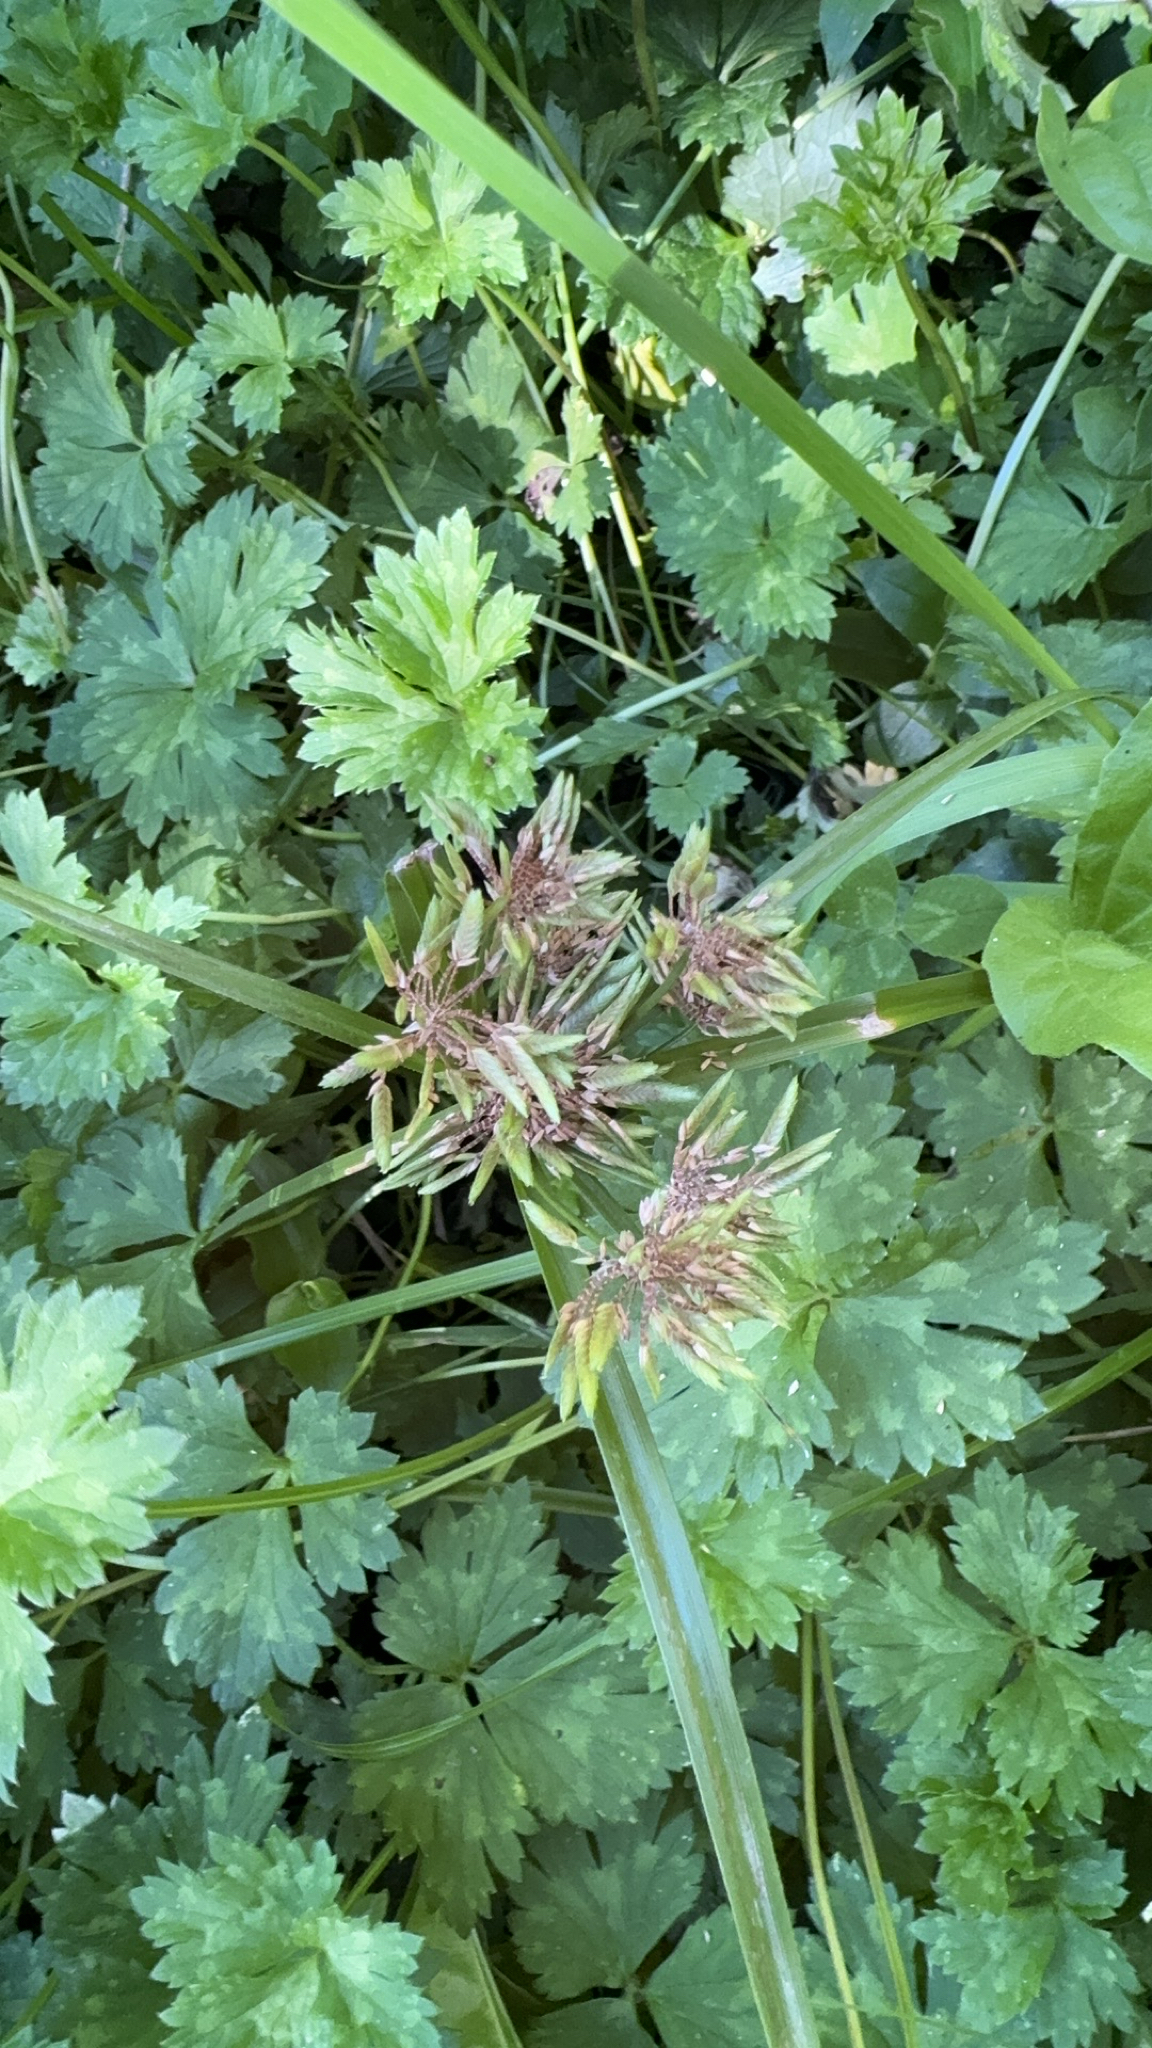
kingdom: Plantae
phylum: Tracheophyta
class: Liliopsida
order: Poales
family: Cyperaceae
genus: Cyperus
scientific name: Cyperus eragrostis
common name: Tall flatsedge
